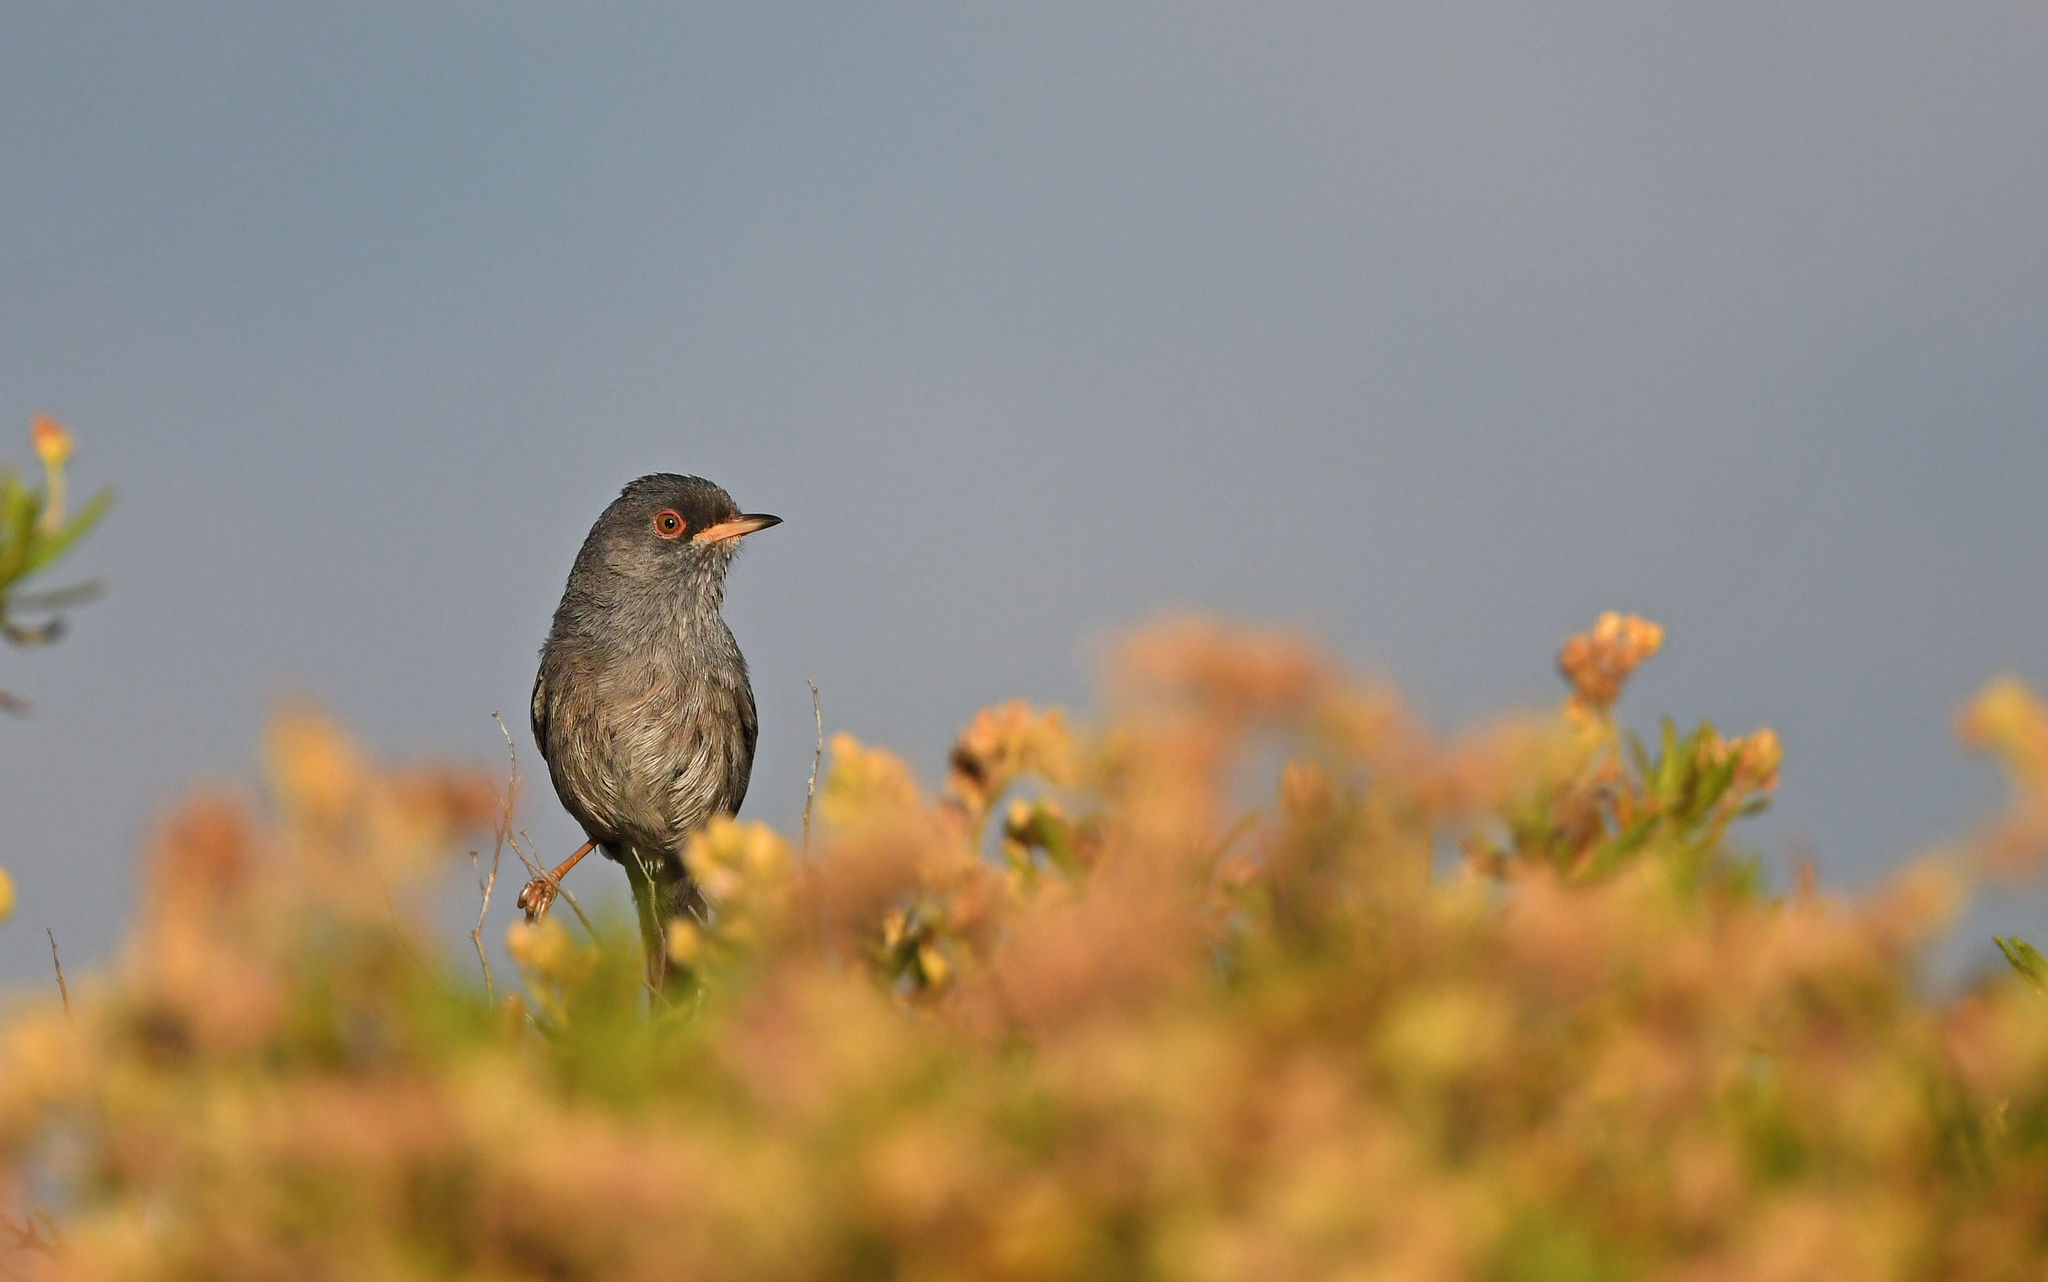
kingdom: Animalia
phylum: Chordata
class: Aves
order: Passeriformes
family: Sylviidae
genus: Sylvia
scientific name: Sylvia sarda
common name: Marmora's warbler
